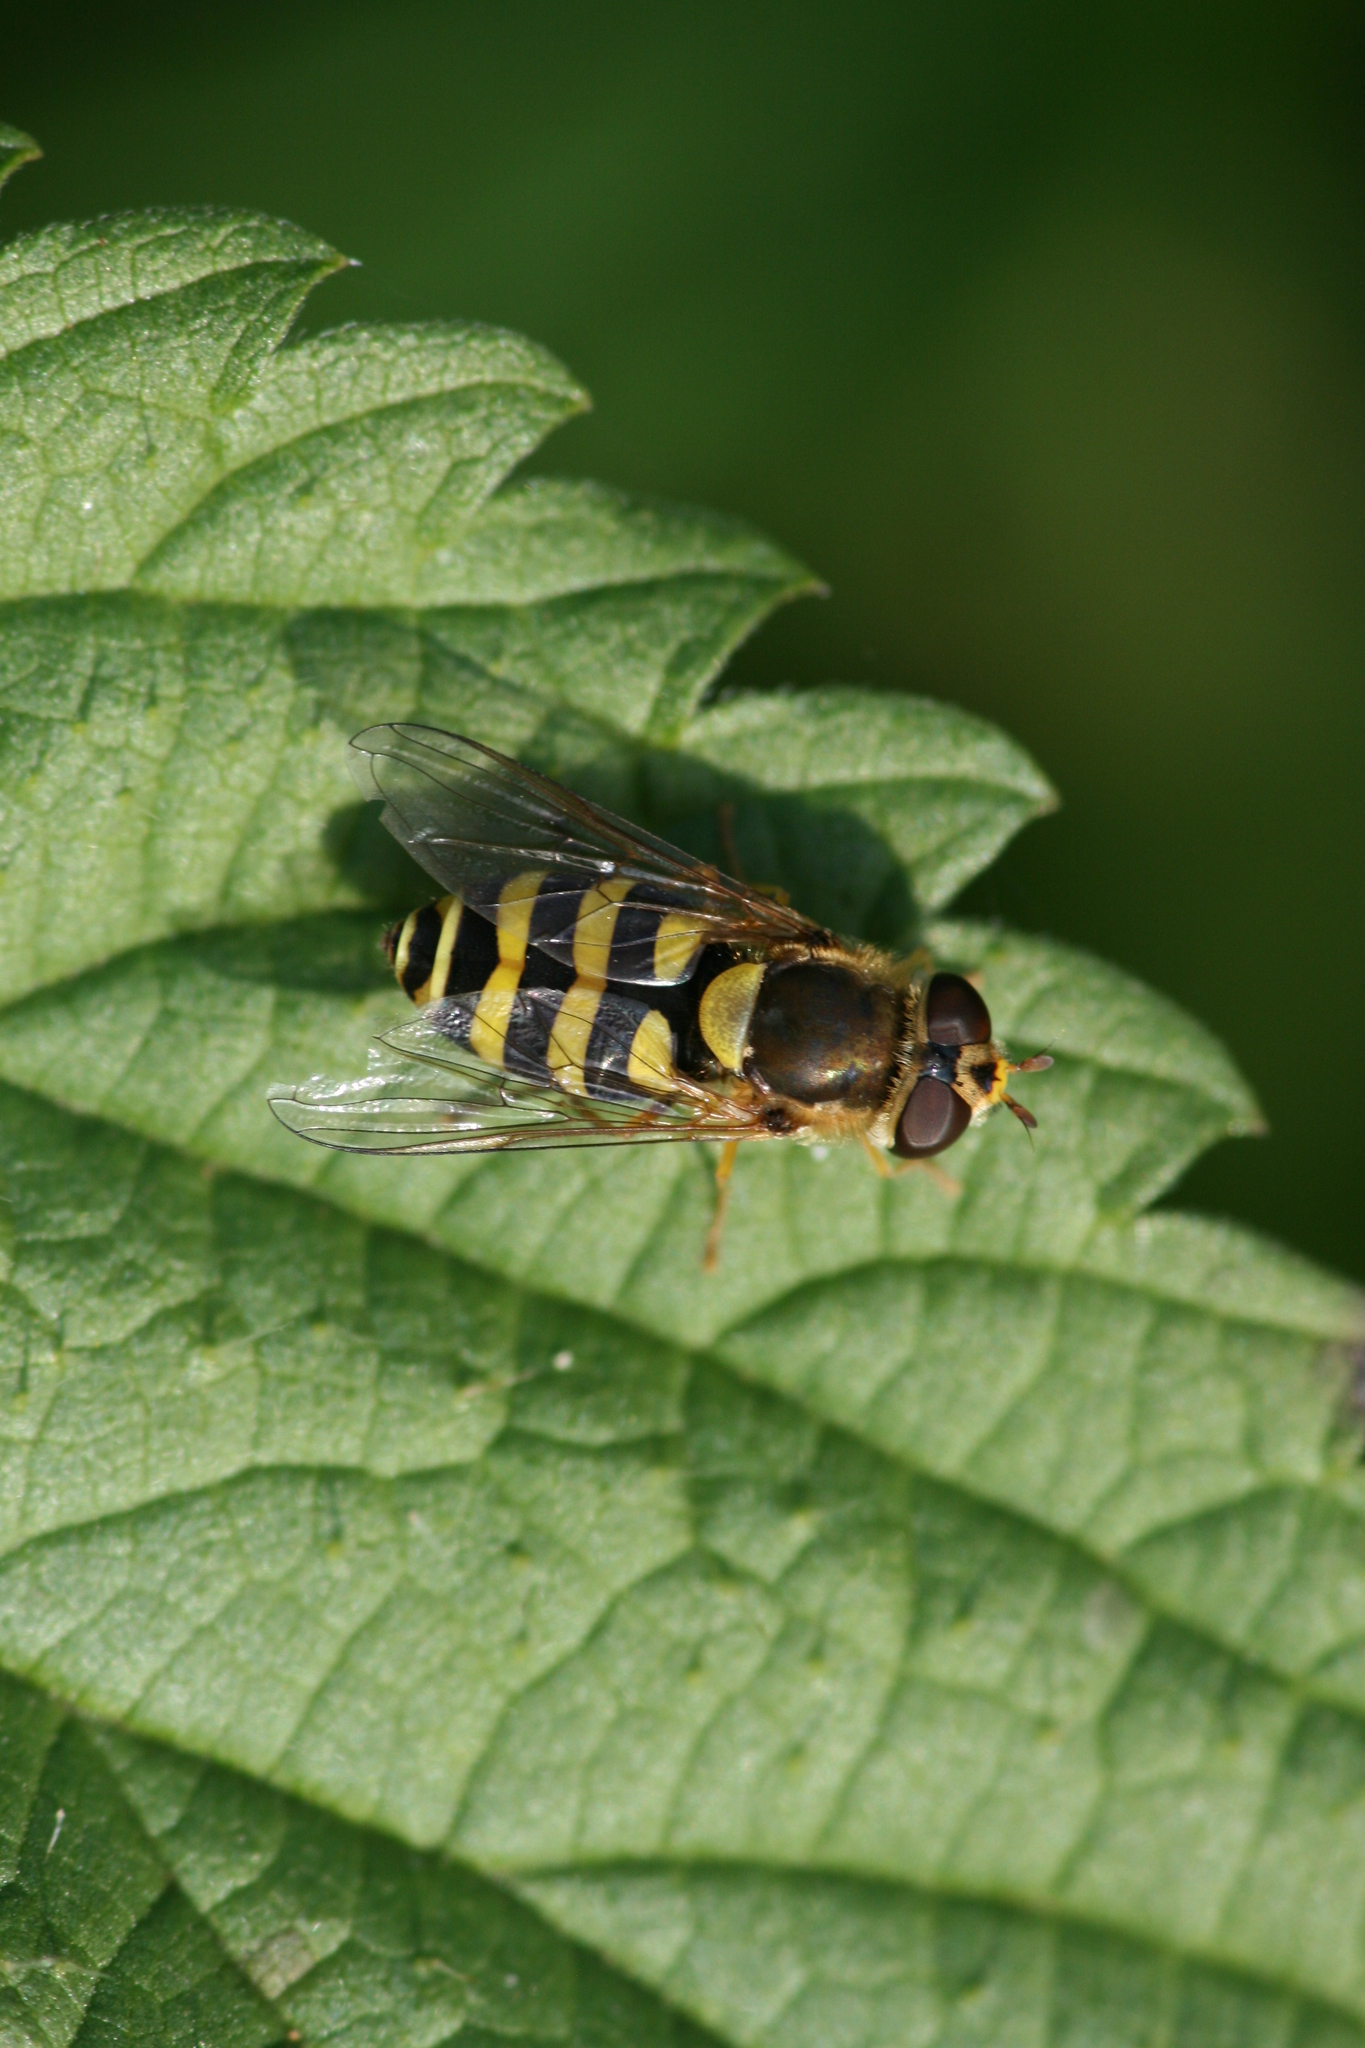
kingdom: Animalia
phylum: Arthropoda
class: Insecta
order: Diptera
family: Syrphidae
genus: Syrphus
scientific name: Syrphus
